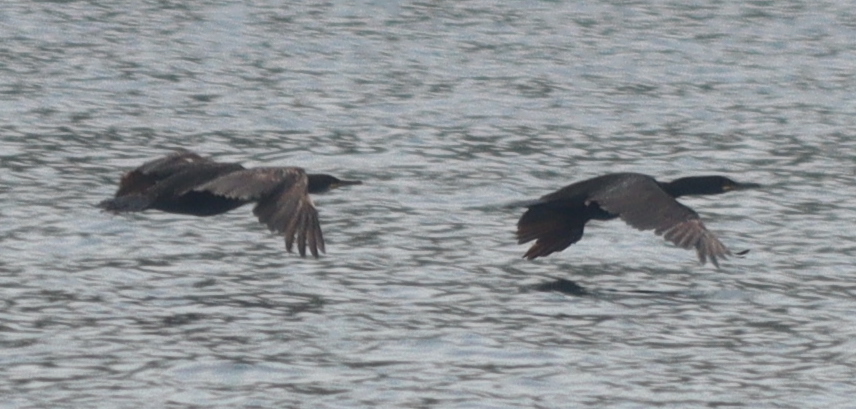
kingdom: Animalia
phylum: Chordata
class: Aves
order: Suliformes
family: Phalacrocoracidae
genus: Phalacrocorax
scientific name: Phalacrocorax aristotelis
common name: European shag
